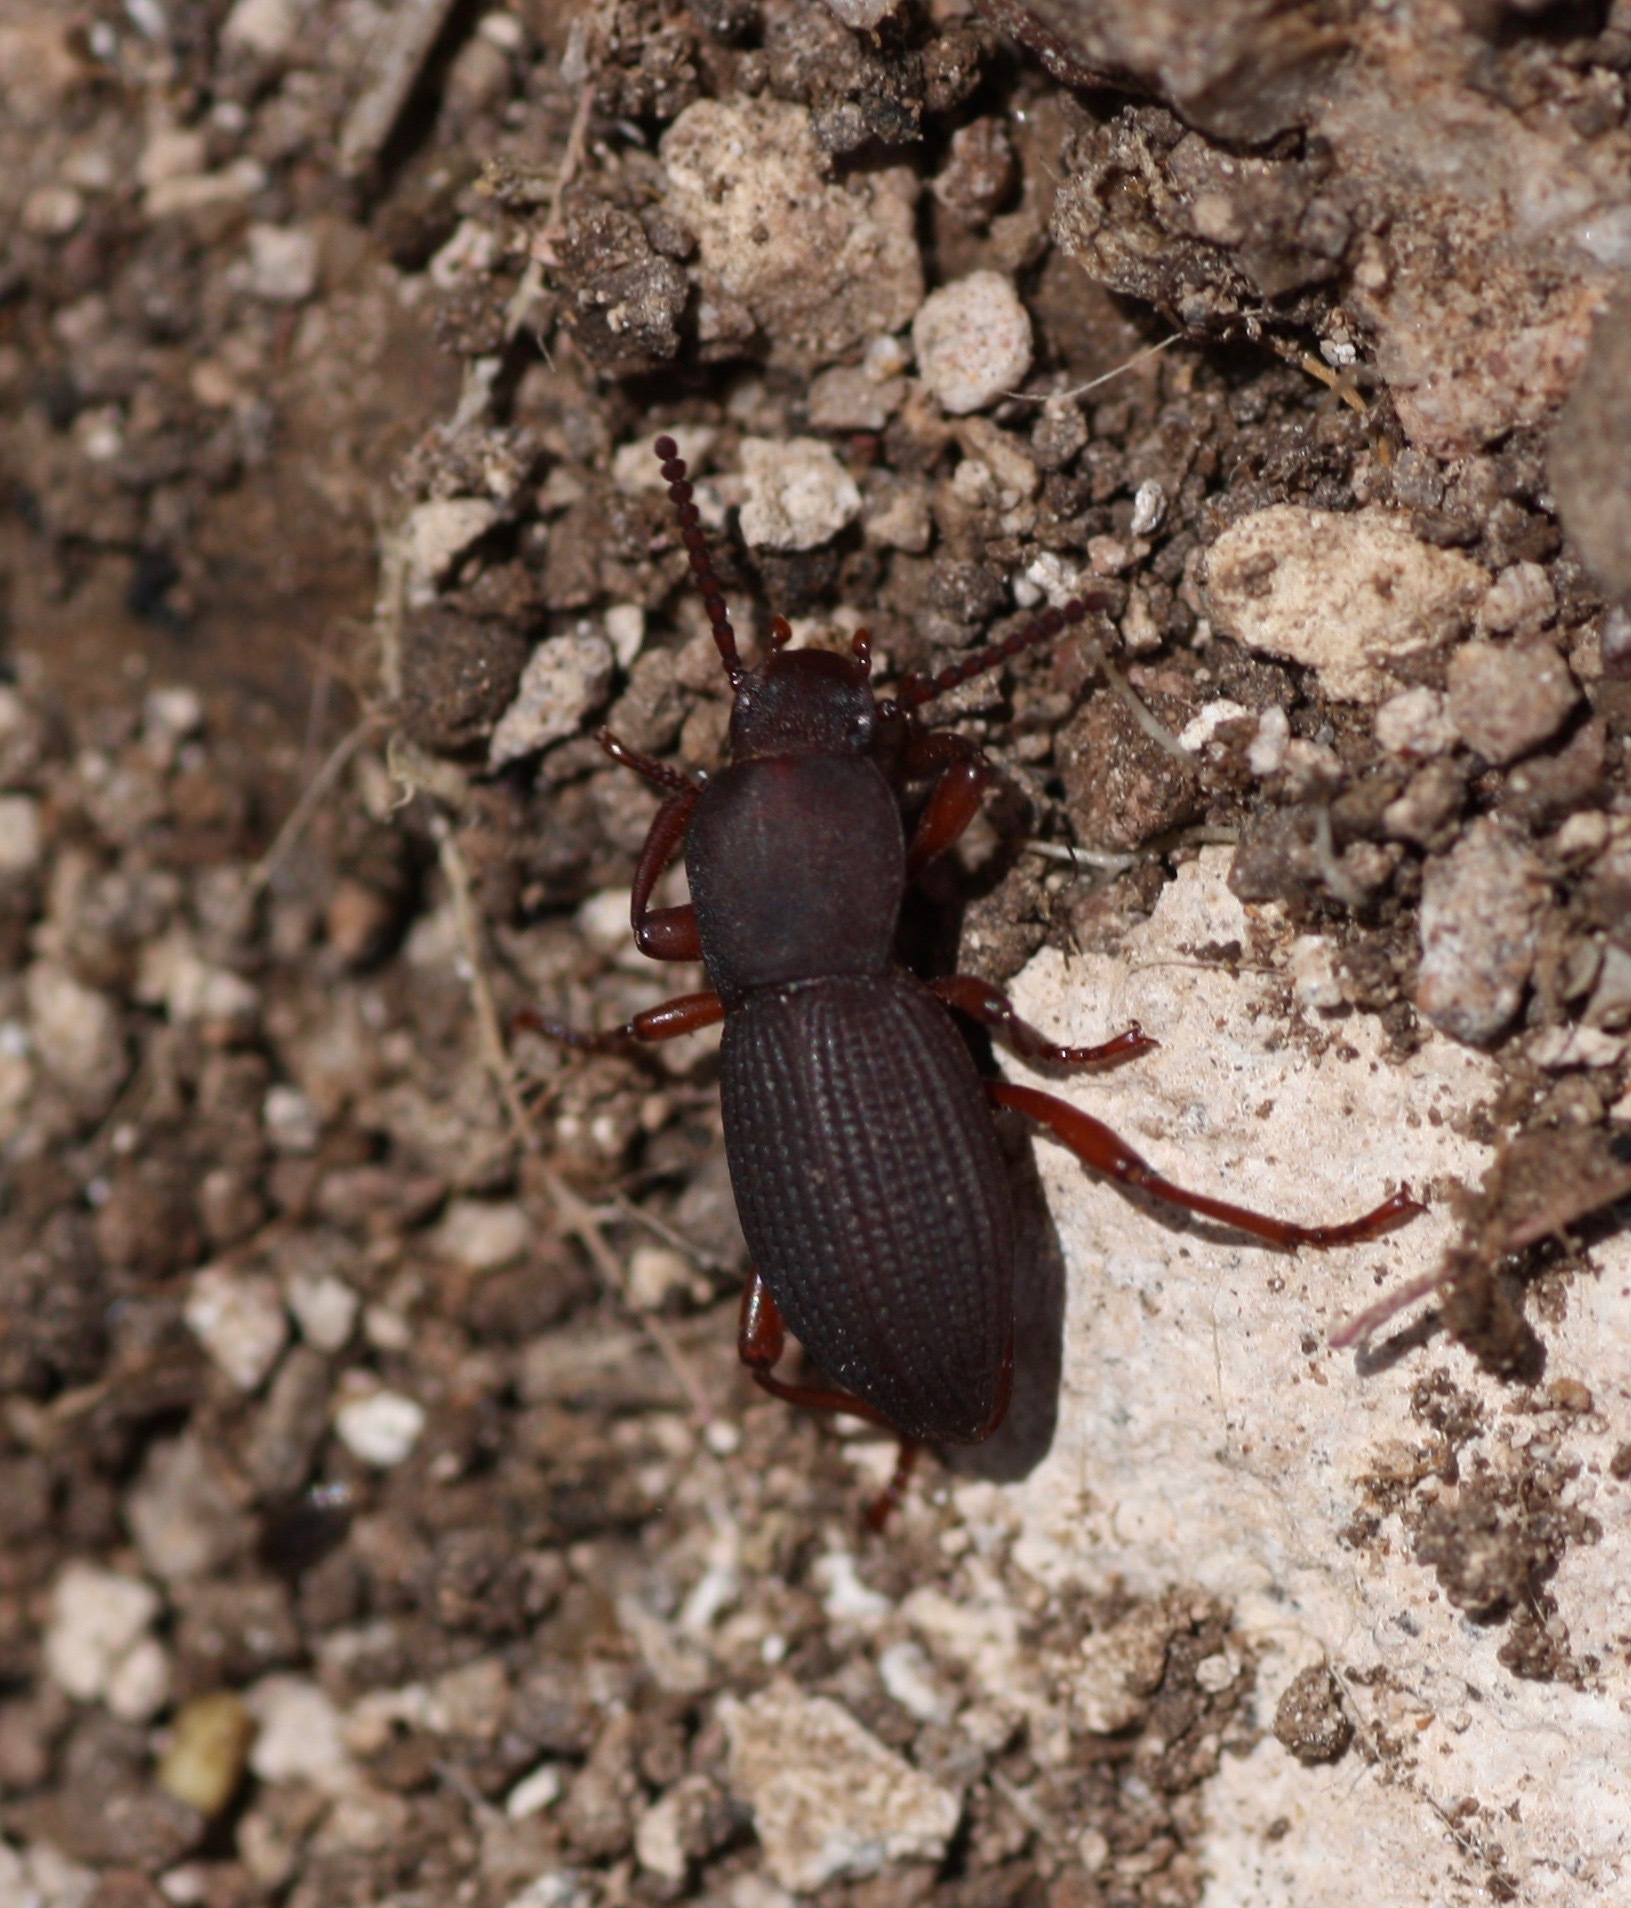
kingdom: Animalia
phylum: Arthropoda
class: Insecta
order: Coleoptera
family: Tenebrionidae
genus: Argoporis
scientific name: Argoporis rufipes
